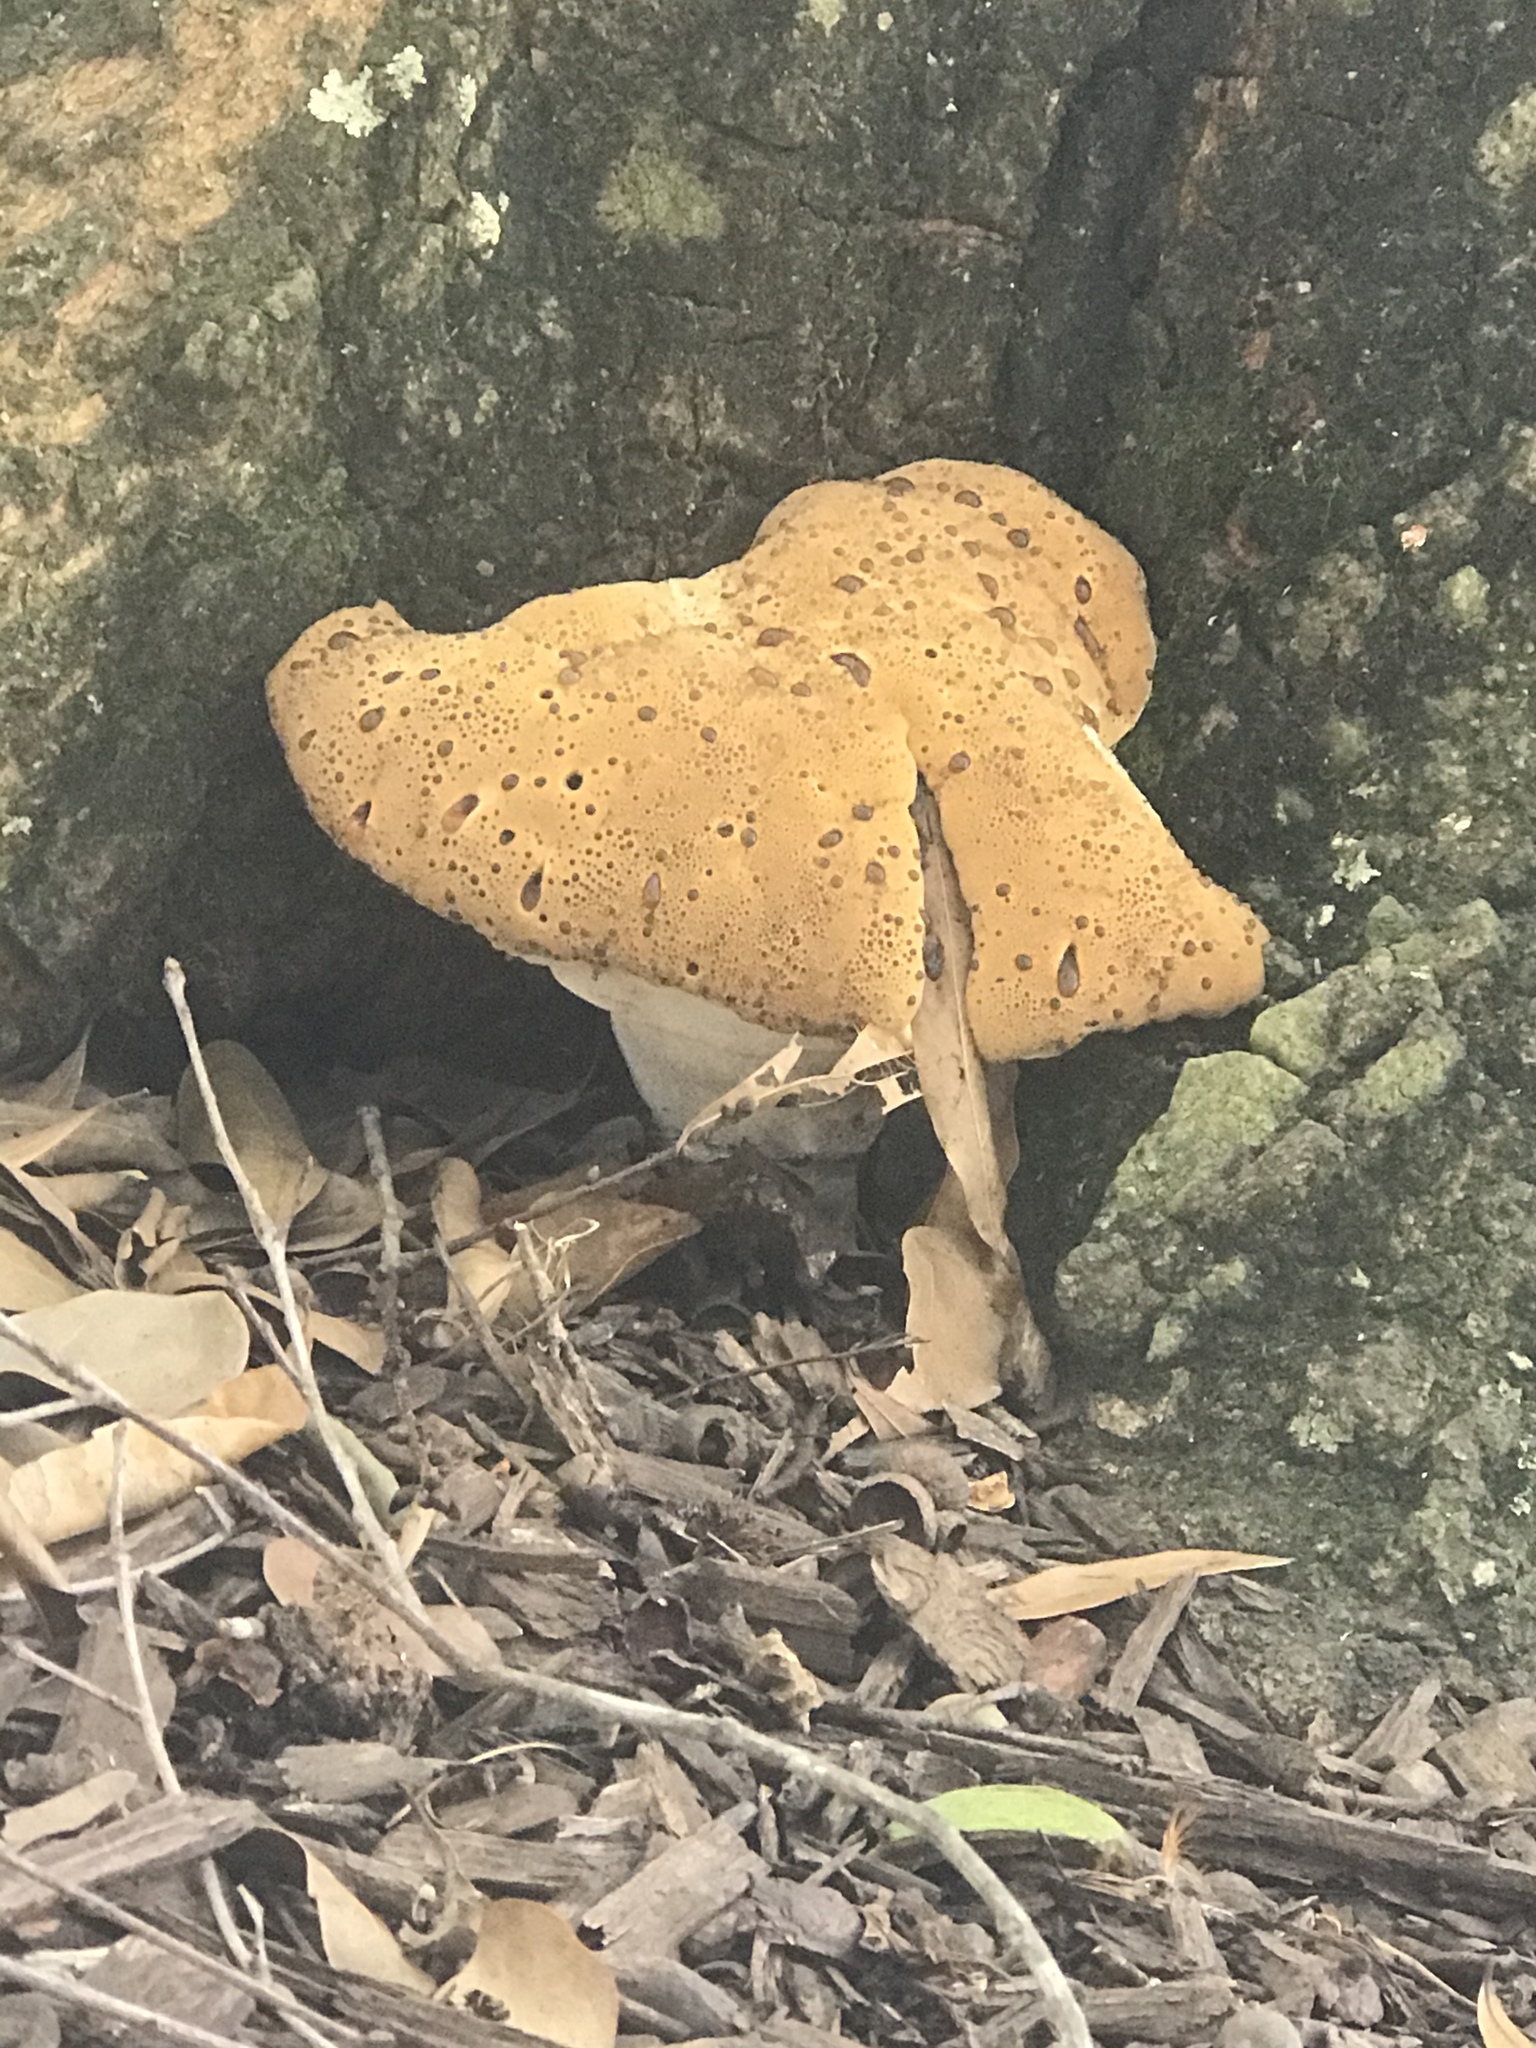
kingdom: Fungi
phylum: Basidiomycota
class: Agaricomycetes
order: Hymenochaetales
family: Hymenochaetaceae
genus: Pseudoinonotus
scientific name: Pseudoinonotus dryadeus
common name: Oak bracket
